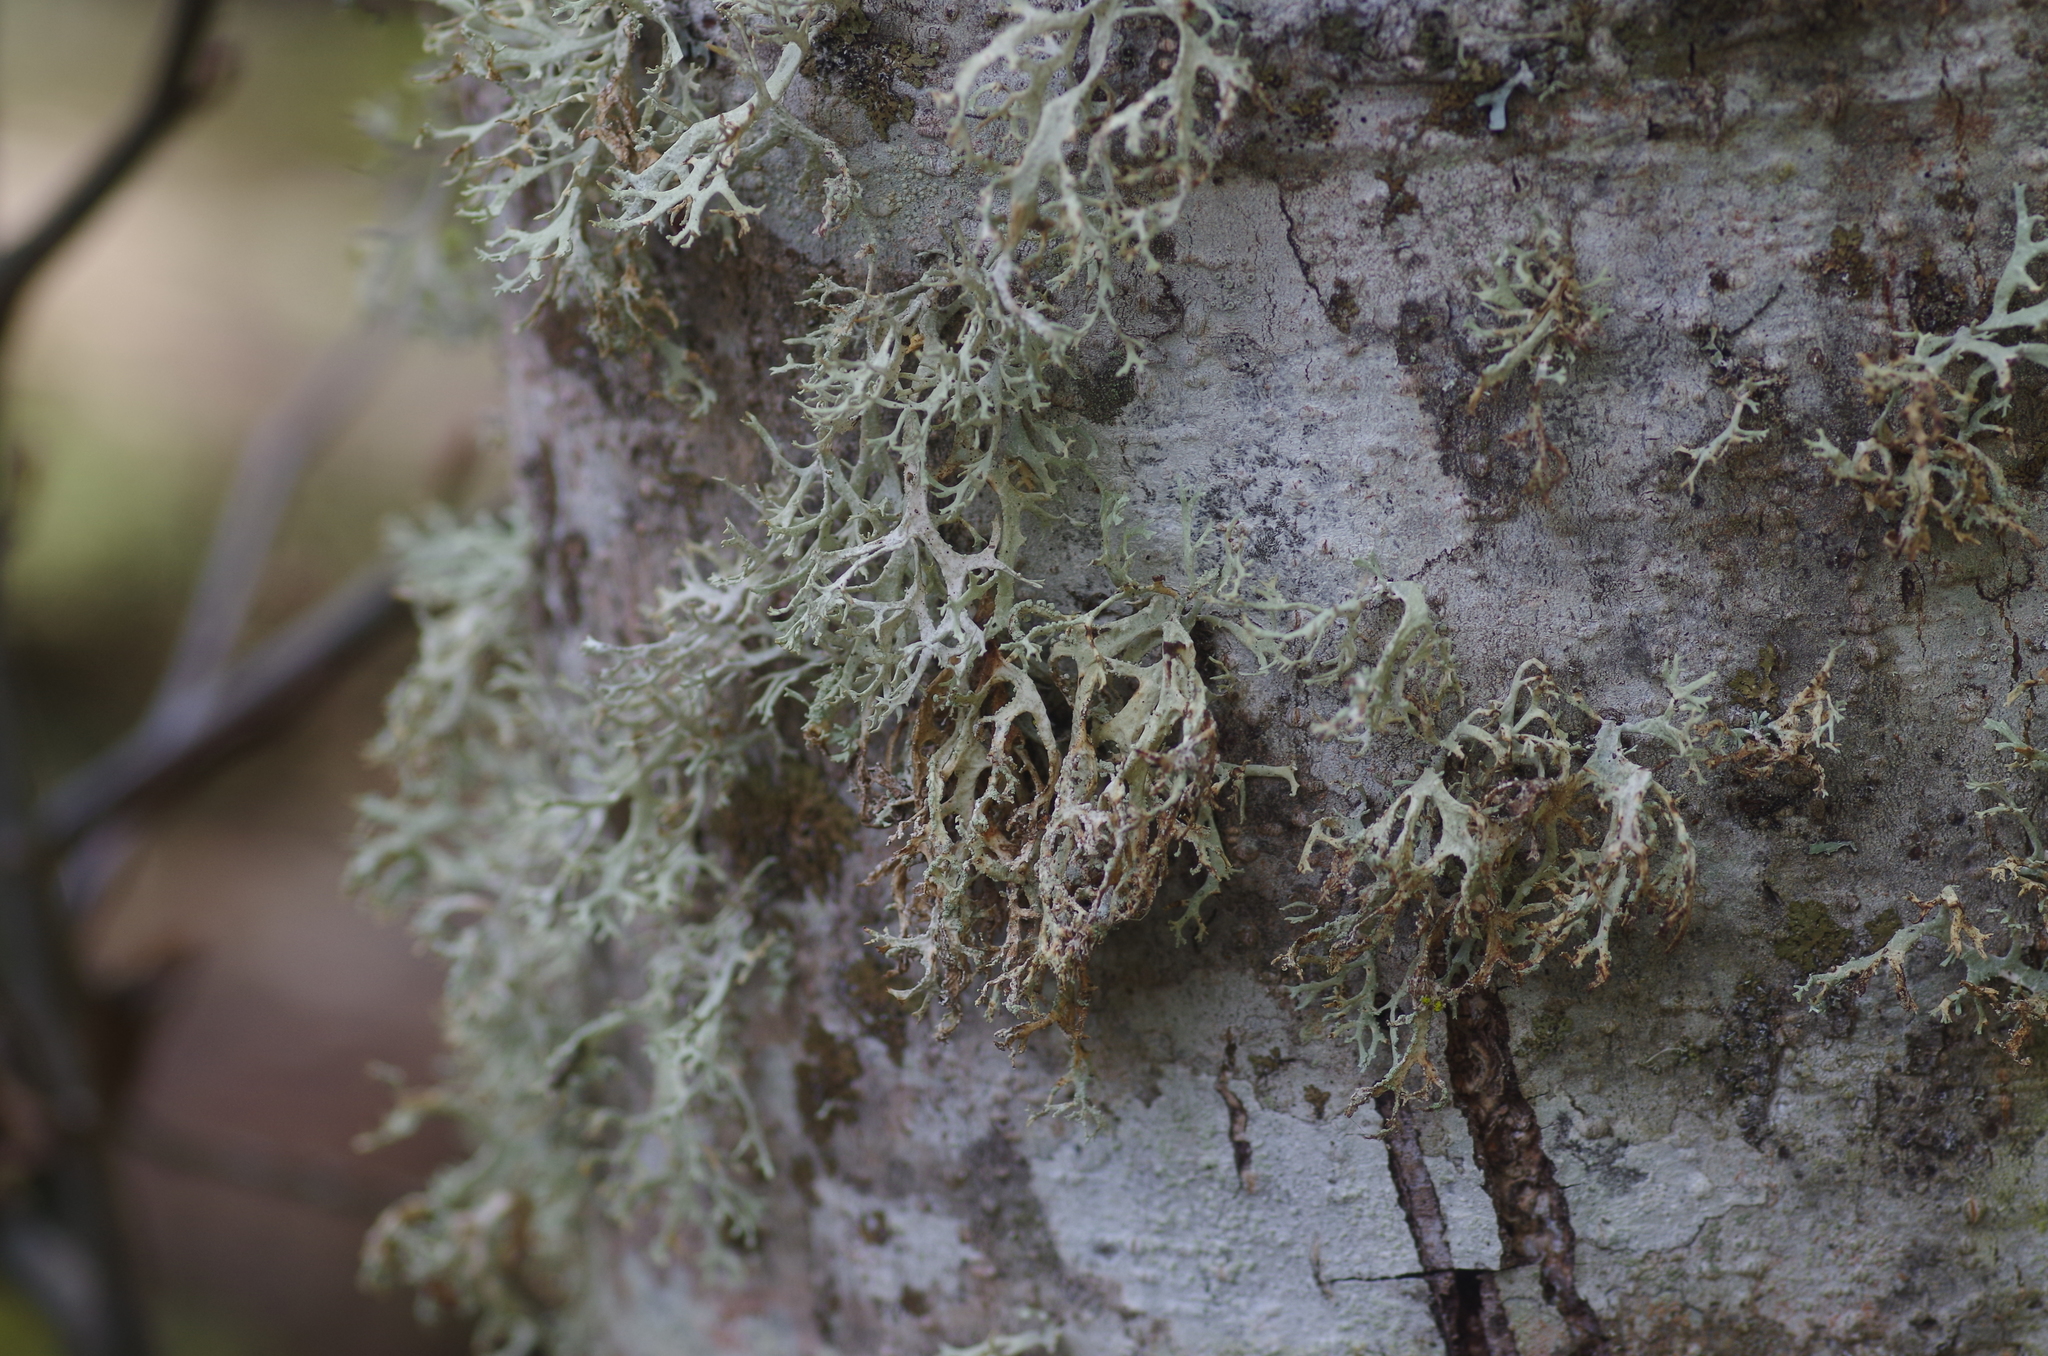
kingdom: Fungi
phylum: Ascomycota
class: Lecanoromycetes
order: Lecanorales
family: Parmeliaceae
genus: Evernia
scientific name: Evernia prunastri
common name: Oak moss
